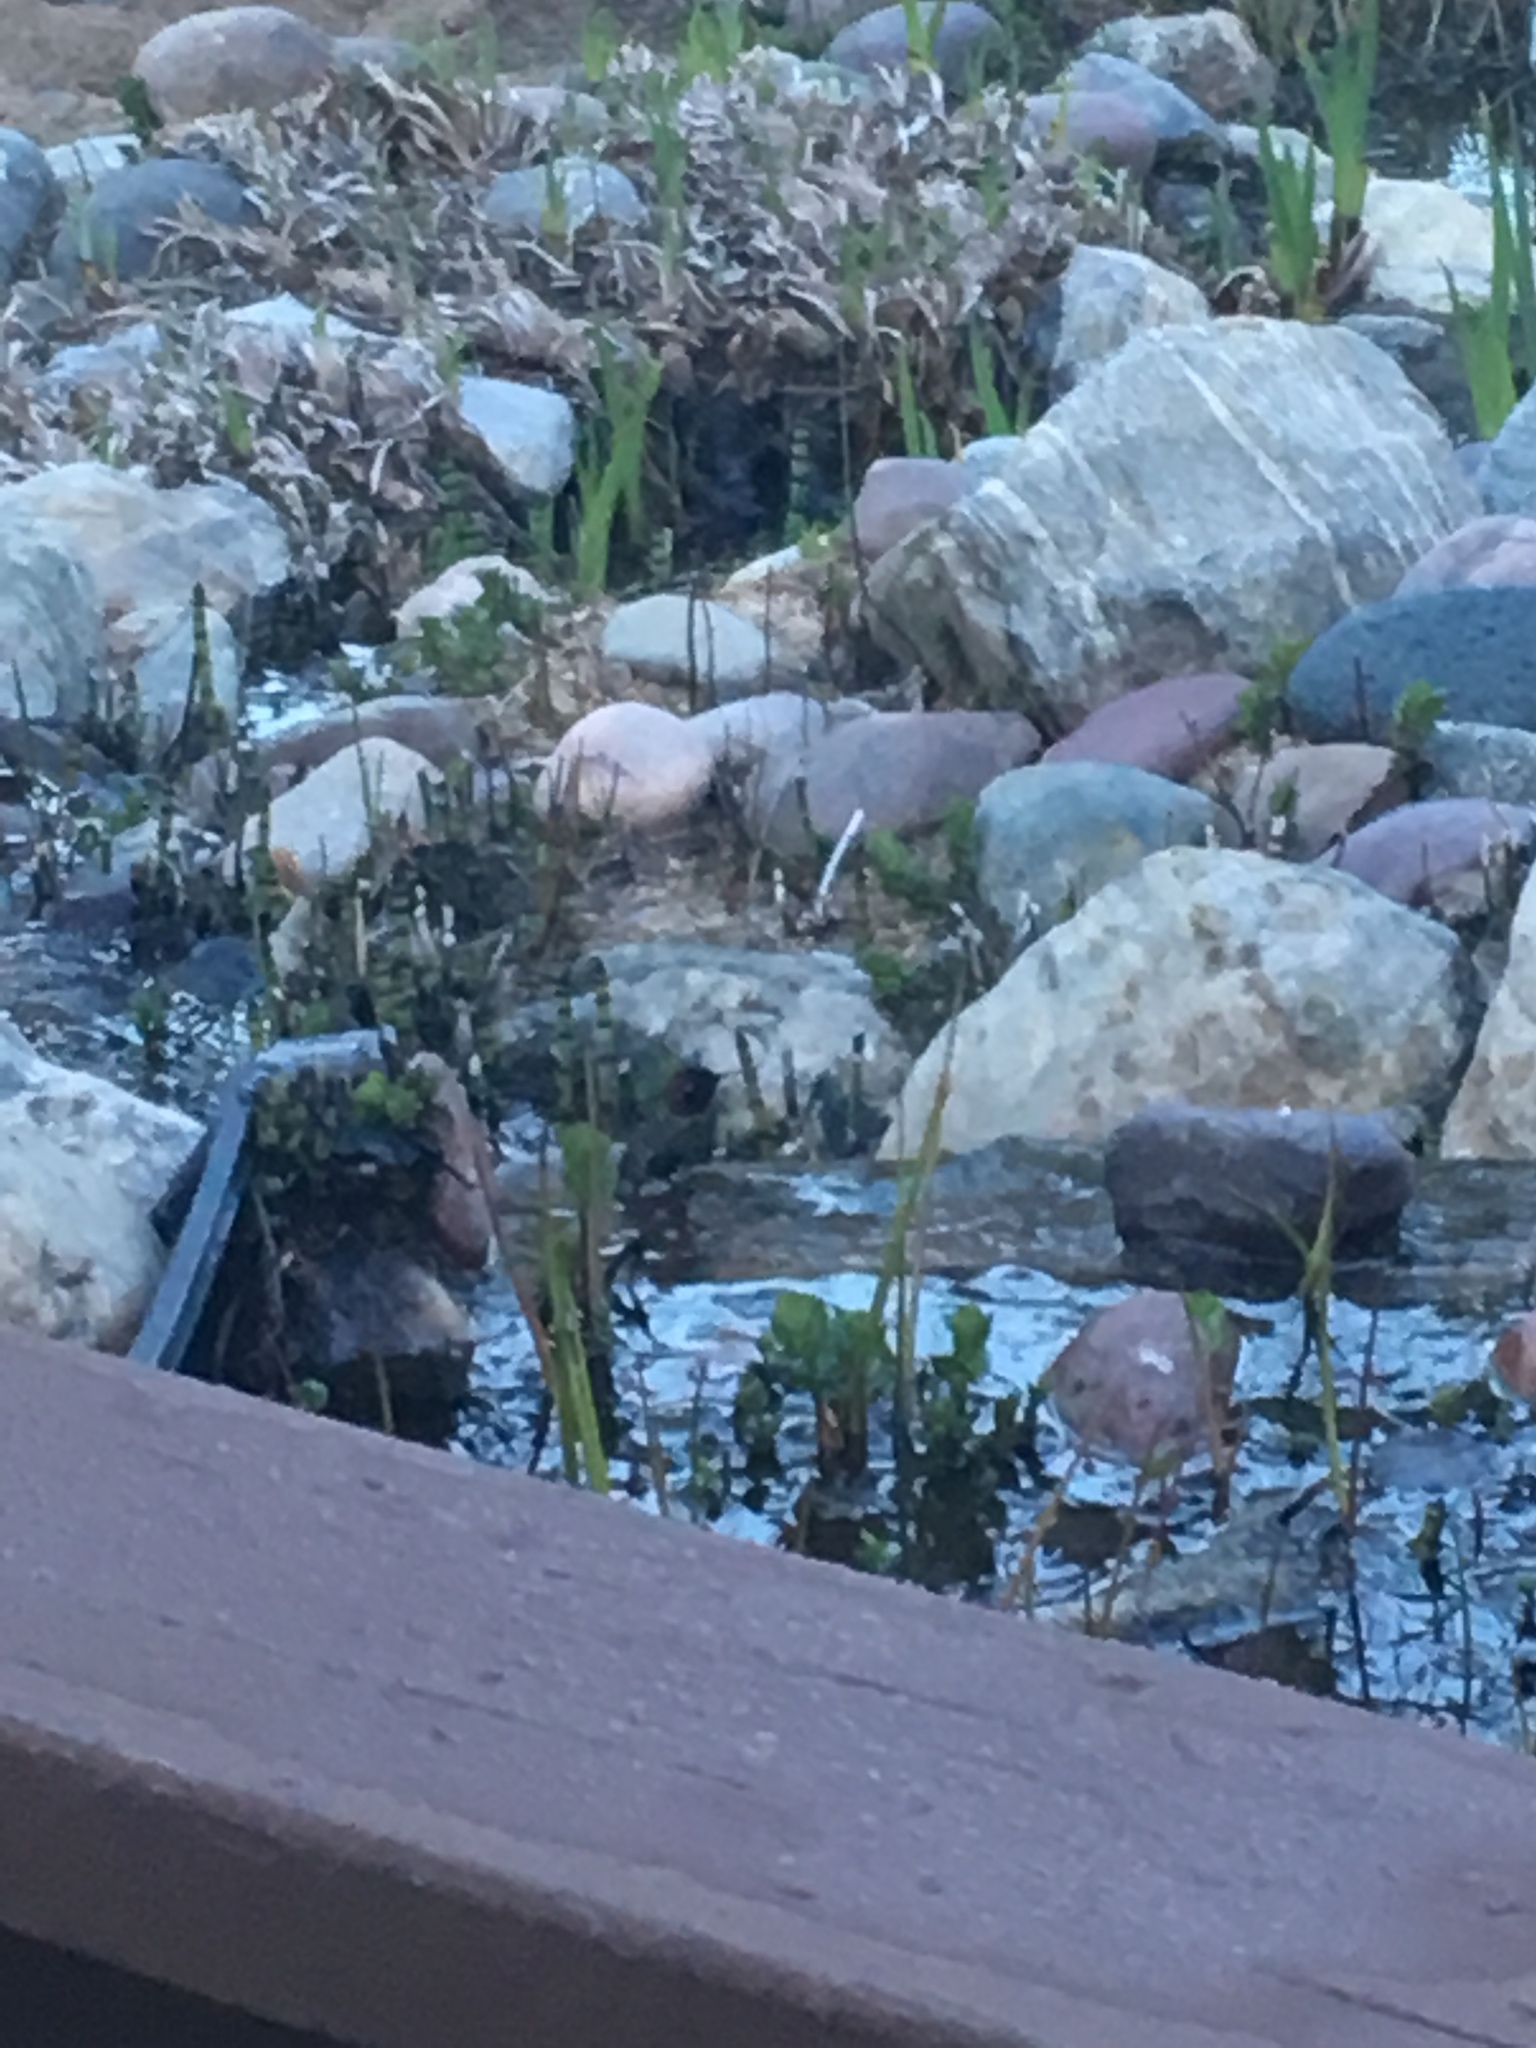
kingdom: Animalia
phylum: Chordata
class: Aves
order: Apodiformes
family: Trochilidae
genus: Calypte
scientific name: Calypte anna
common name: Anna's hummingbird
